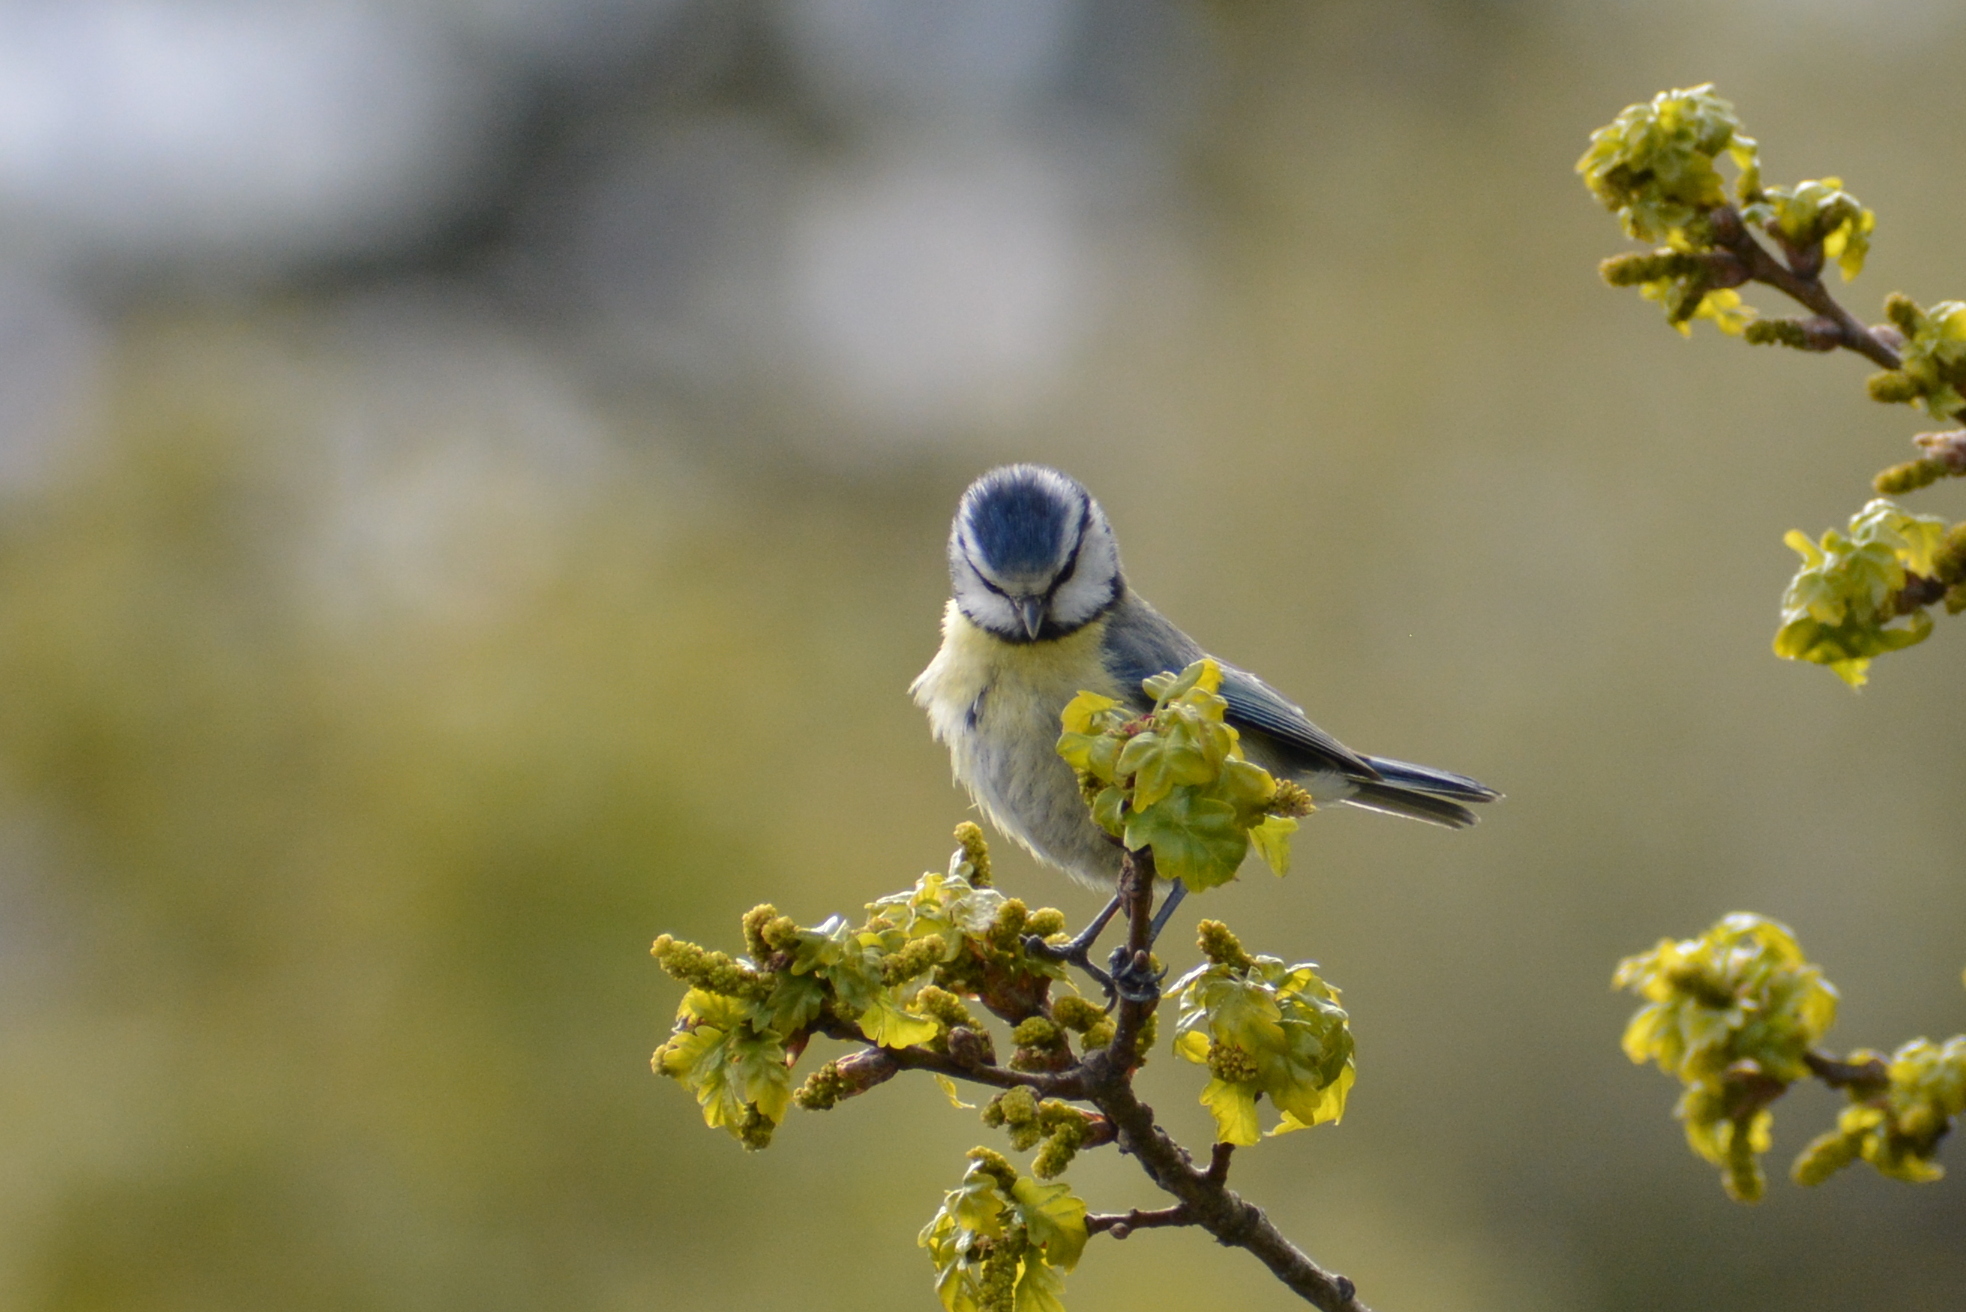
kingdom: Animalia
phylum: Chordata
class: Aves
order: Passeriformes
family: Paridae
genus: Cyanistes
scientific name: Cyanistes caeruleus
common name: Eurasian blue tit
